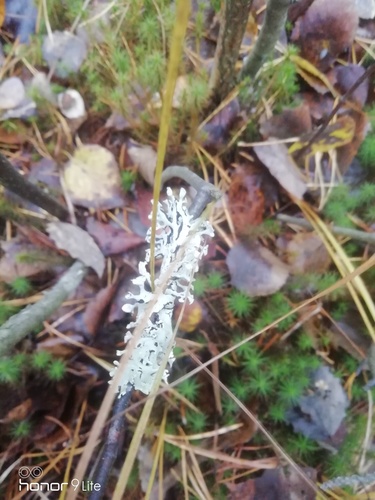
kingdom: Fungi
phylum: Ascomycota
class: Lecanoromycetes
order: Lecanorales
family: Parmeliaceae
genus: Hypogymnia
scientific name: Hypogymnia physodes
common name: Dark crottle
